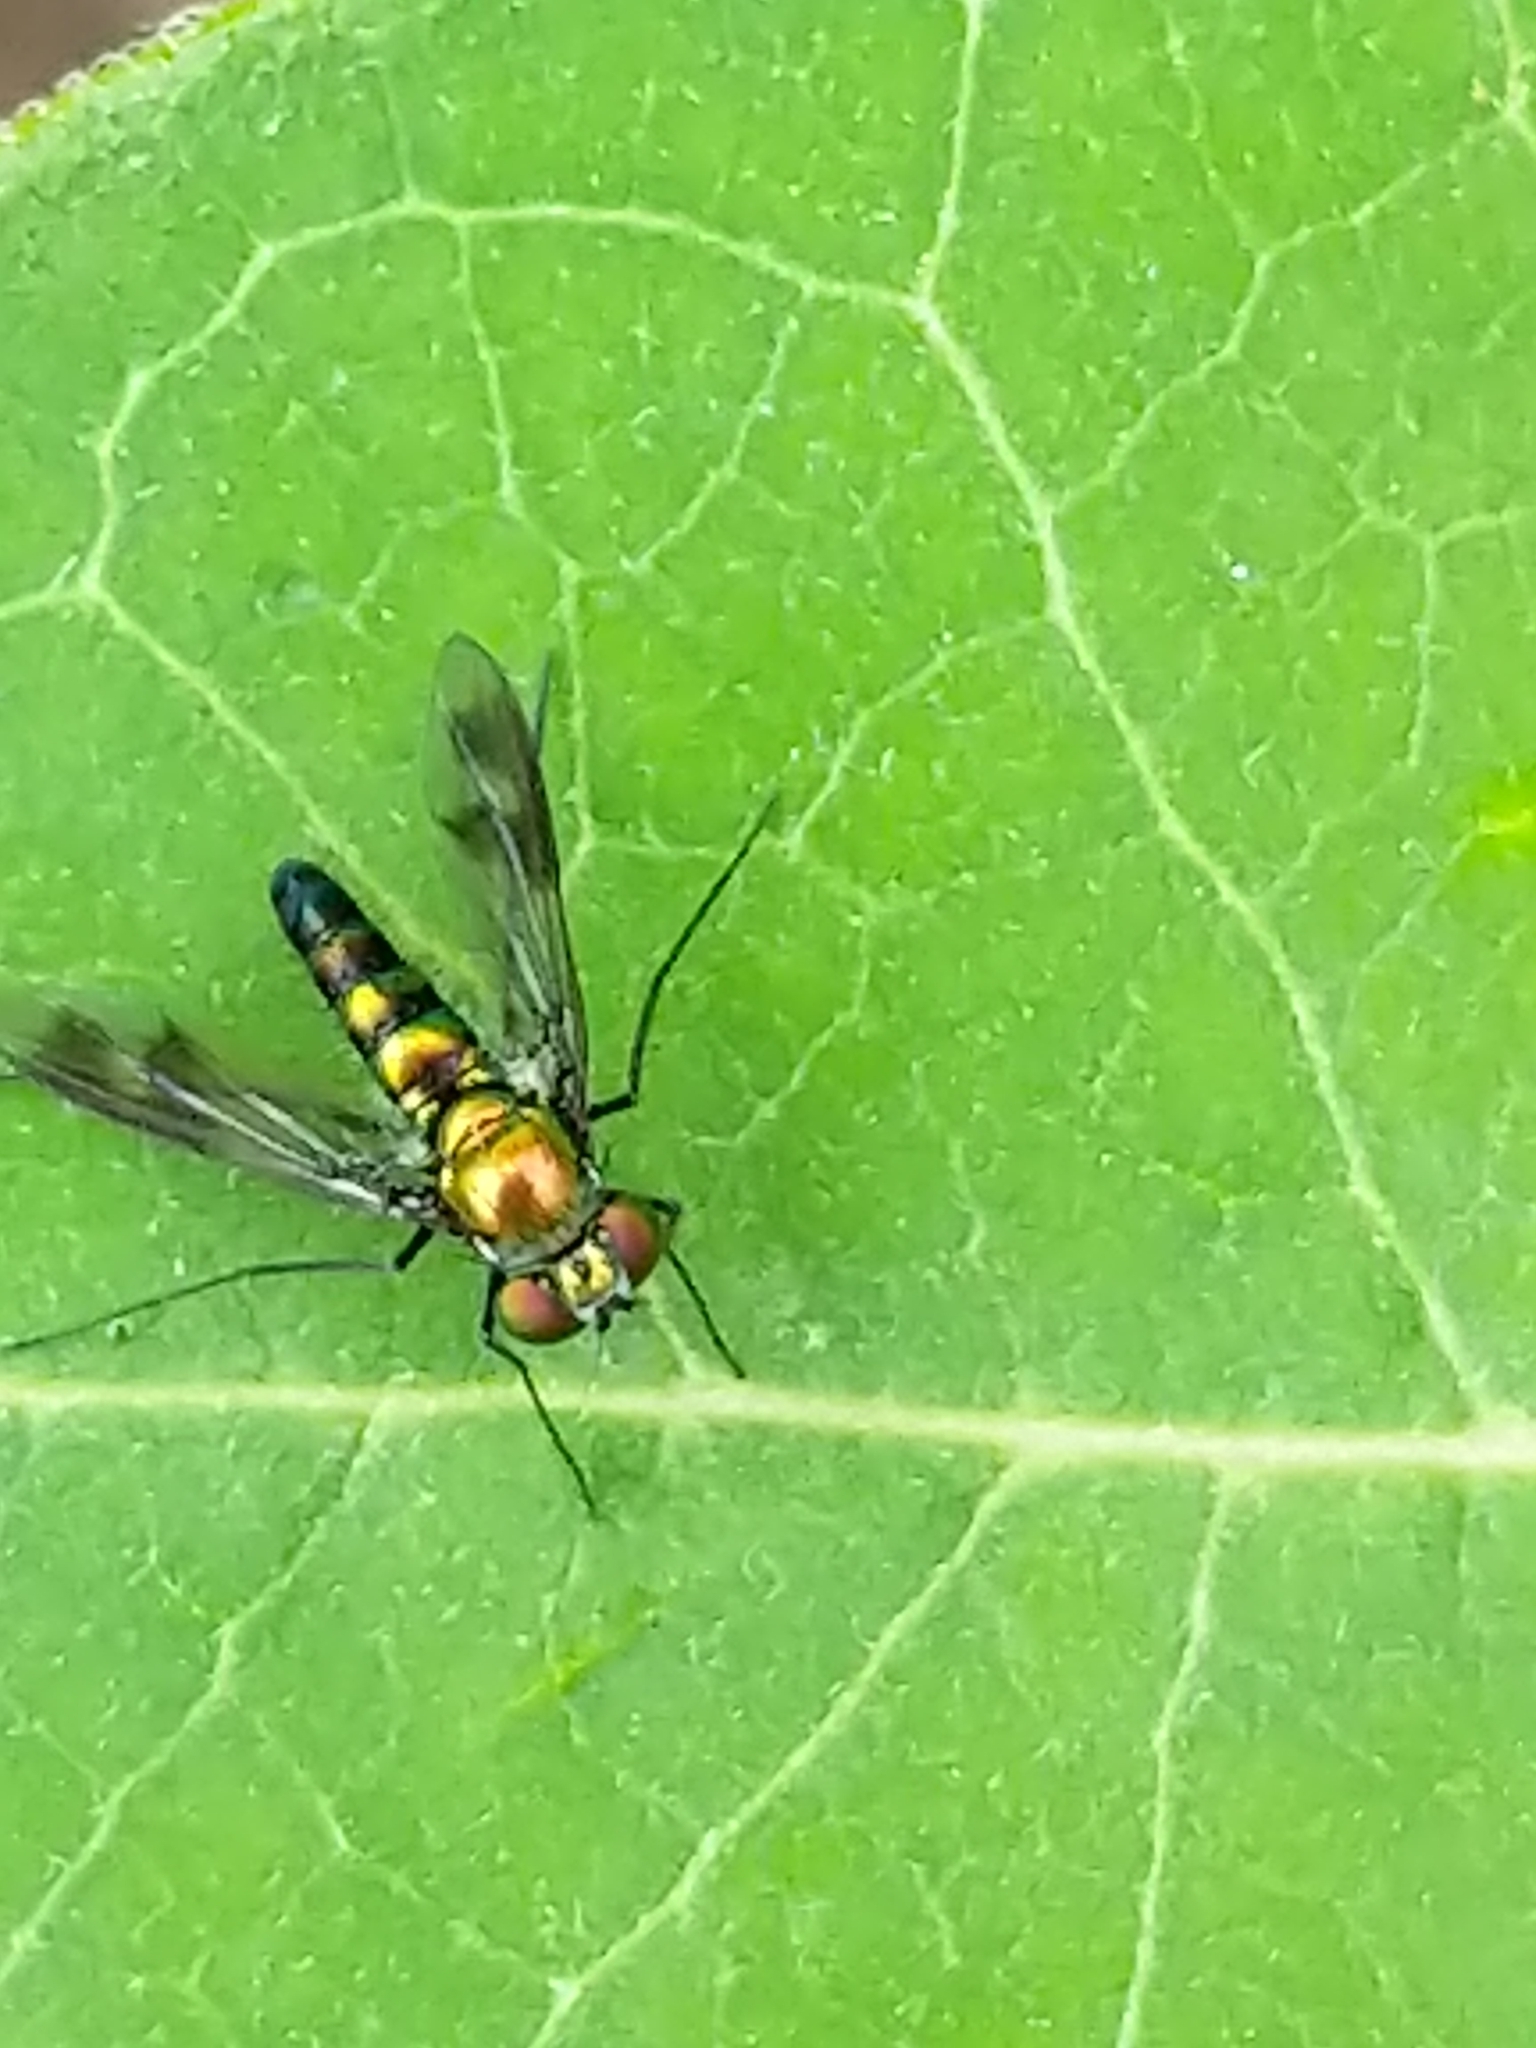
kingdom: Animalia
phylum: Arthropoda
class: Insecta
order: Diptera
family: Dolichopodidae
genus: Condylostylus
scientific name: Condylostylus patibulatus
